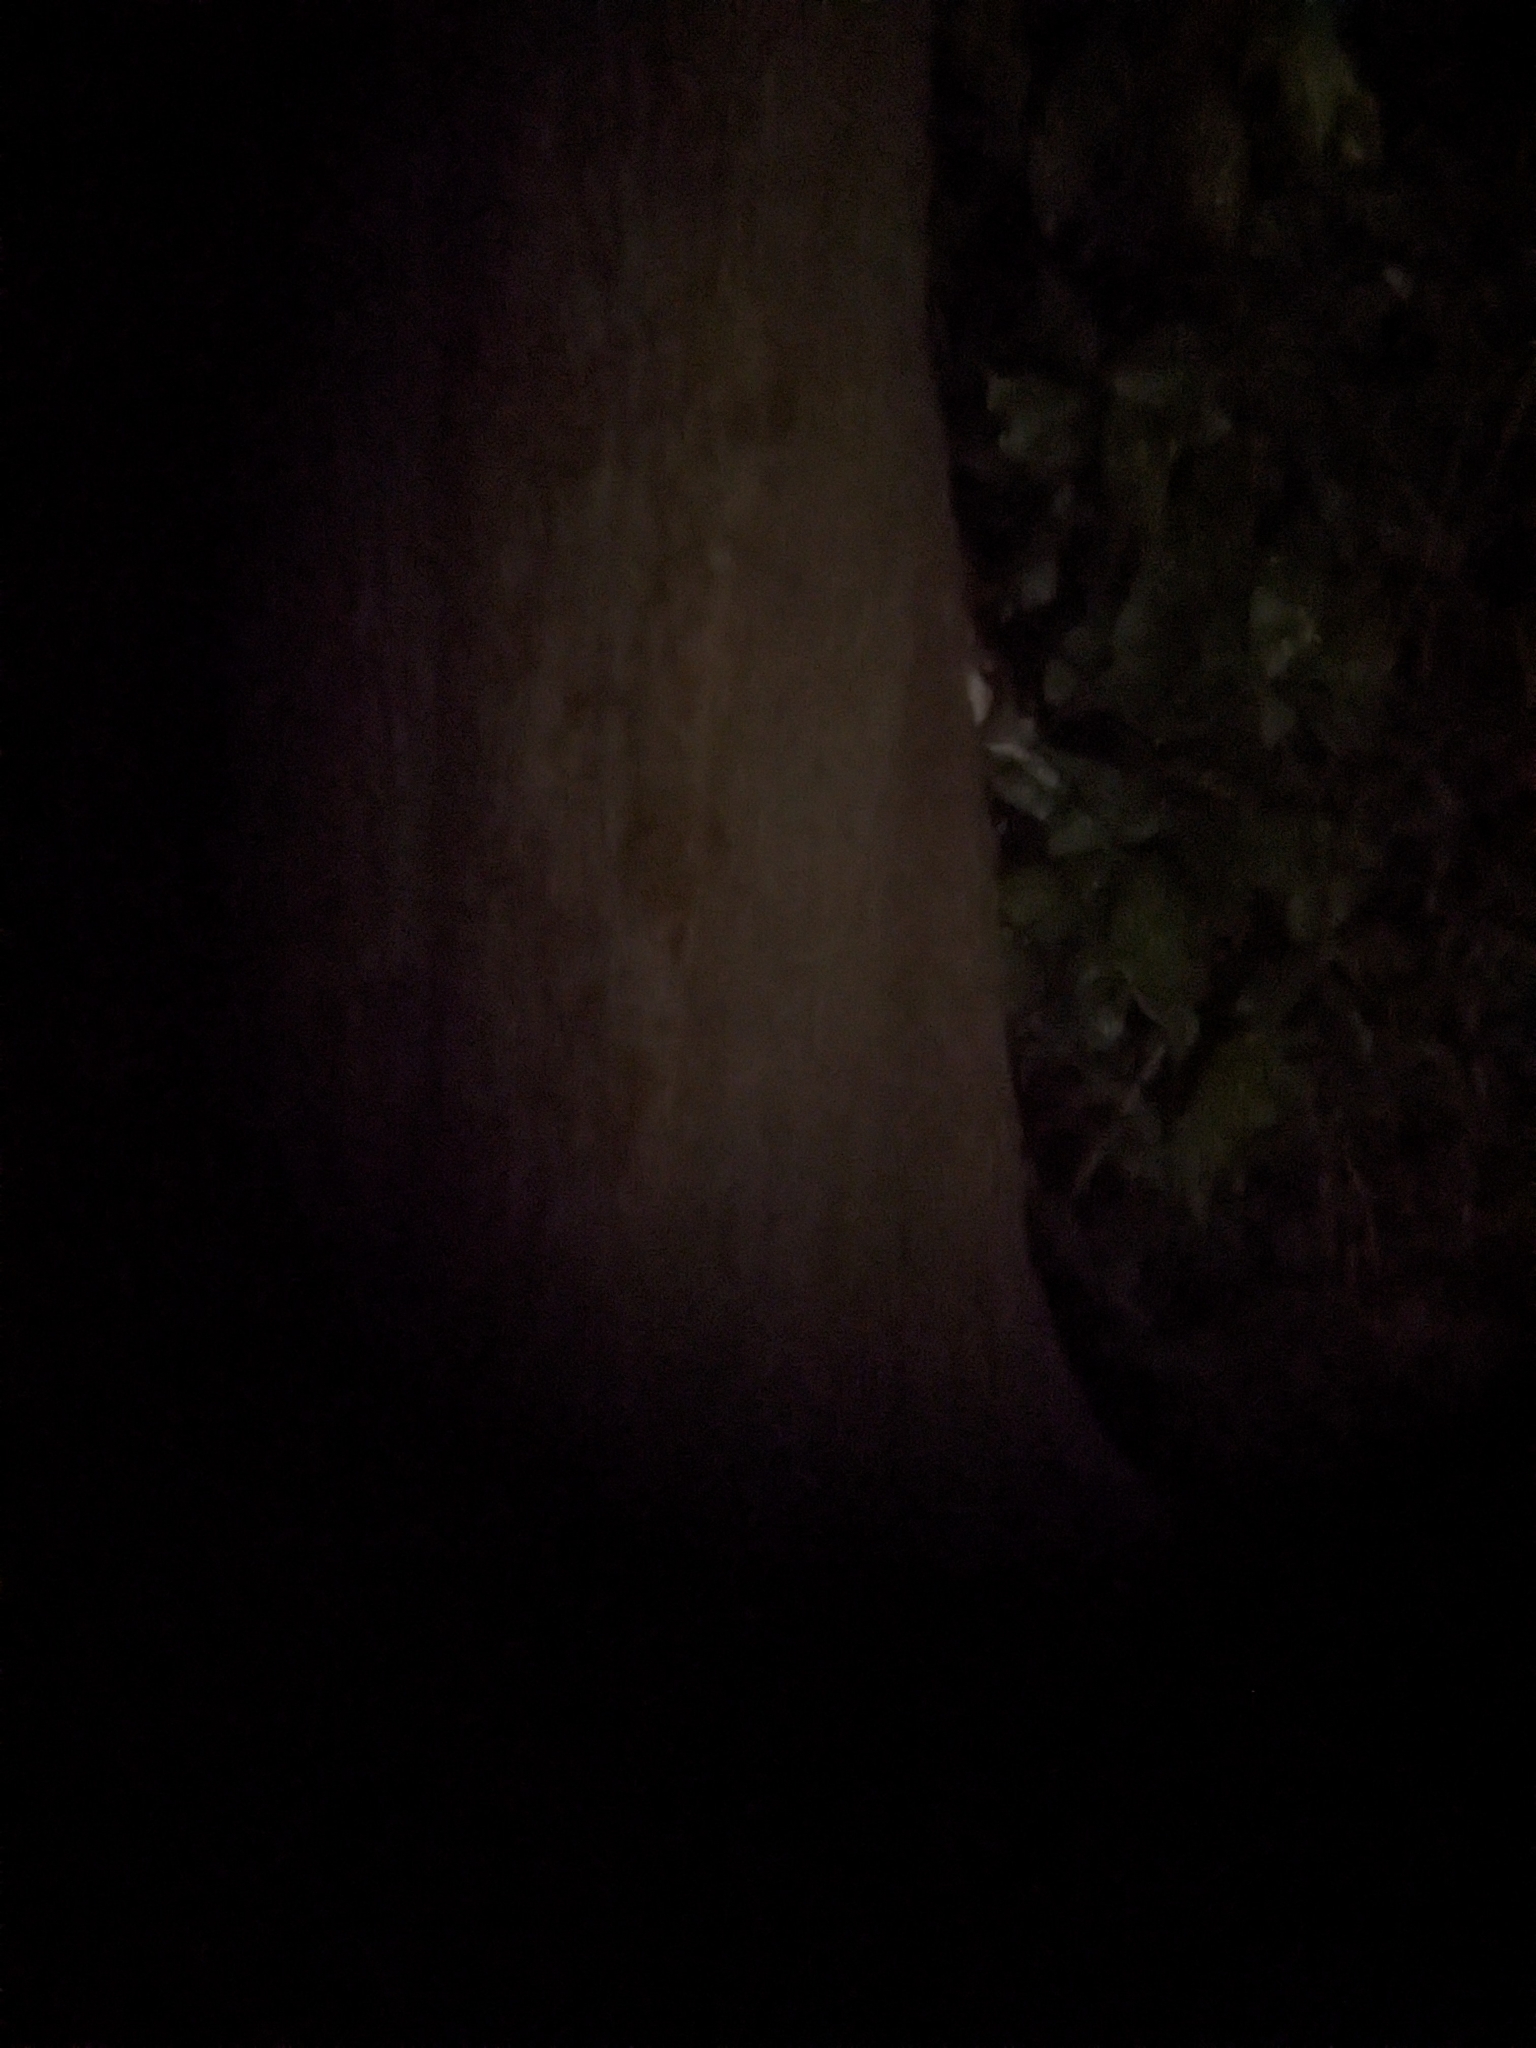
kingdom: Animalia
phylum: Chordata
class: Mammalia
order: Rodentia
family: Sciuridae
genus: Glaucomys
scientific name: Glaucomys volans
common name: Southern flying squirrel
